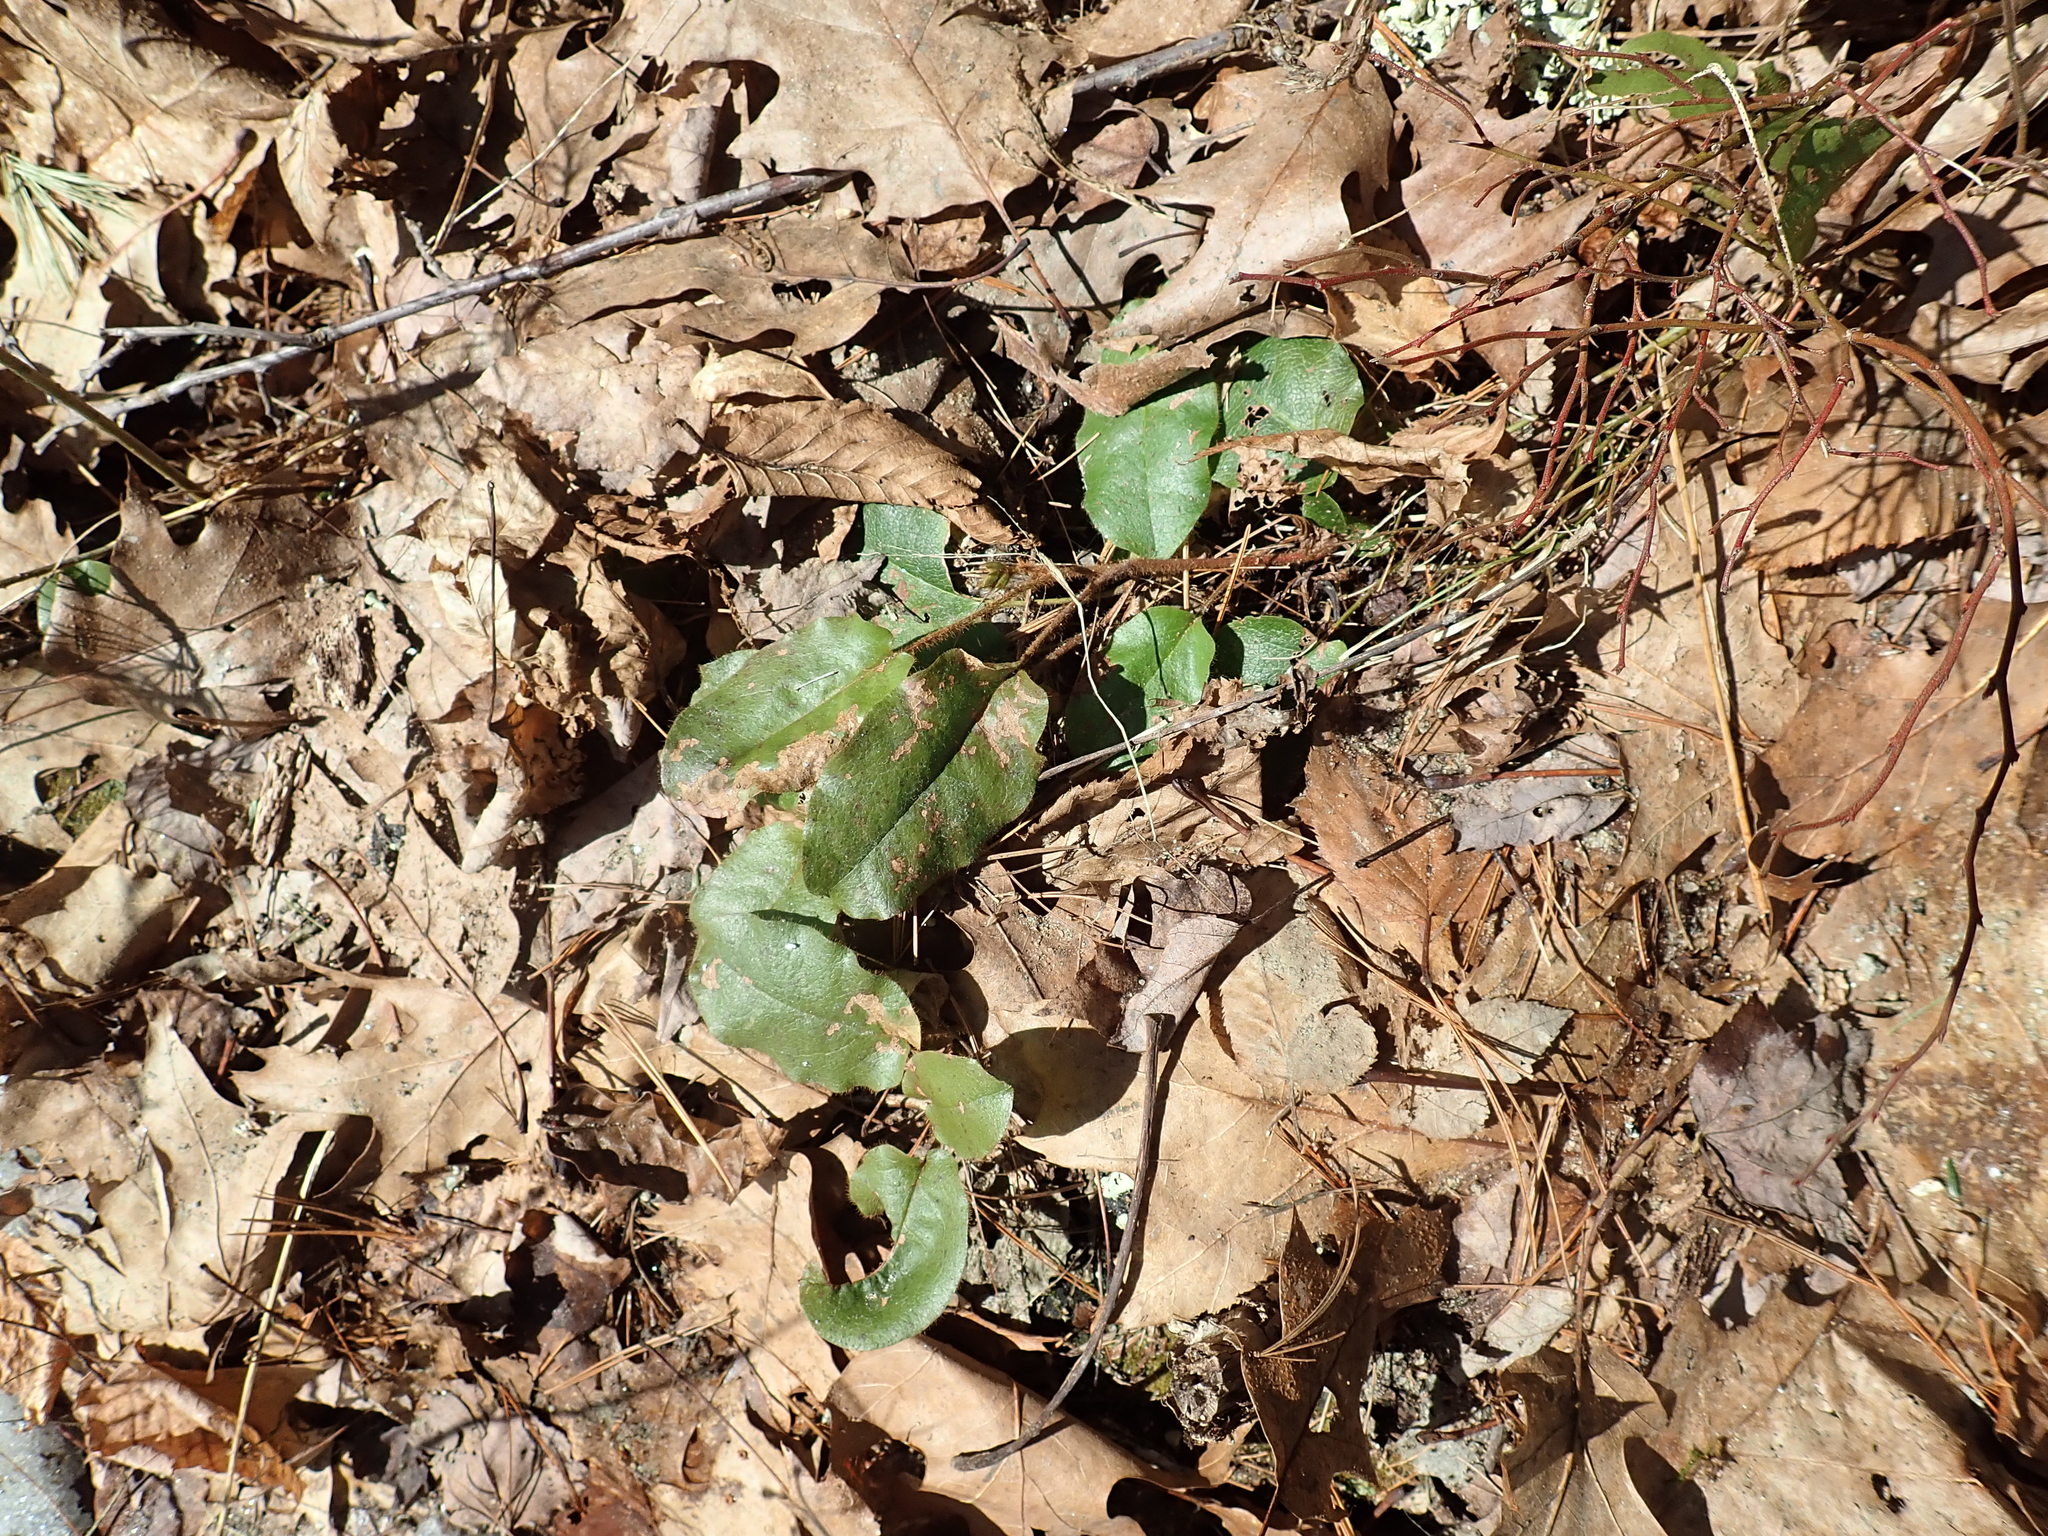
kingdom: Plantae
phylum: Tracheophyta
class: Magnoliopsida
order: Ericales
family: Ericaceae
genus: Epigaea
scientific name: Epigaea repens
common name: Gravelroot
